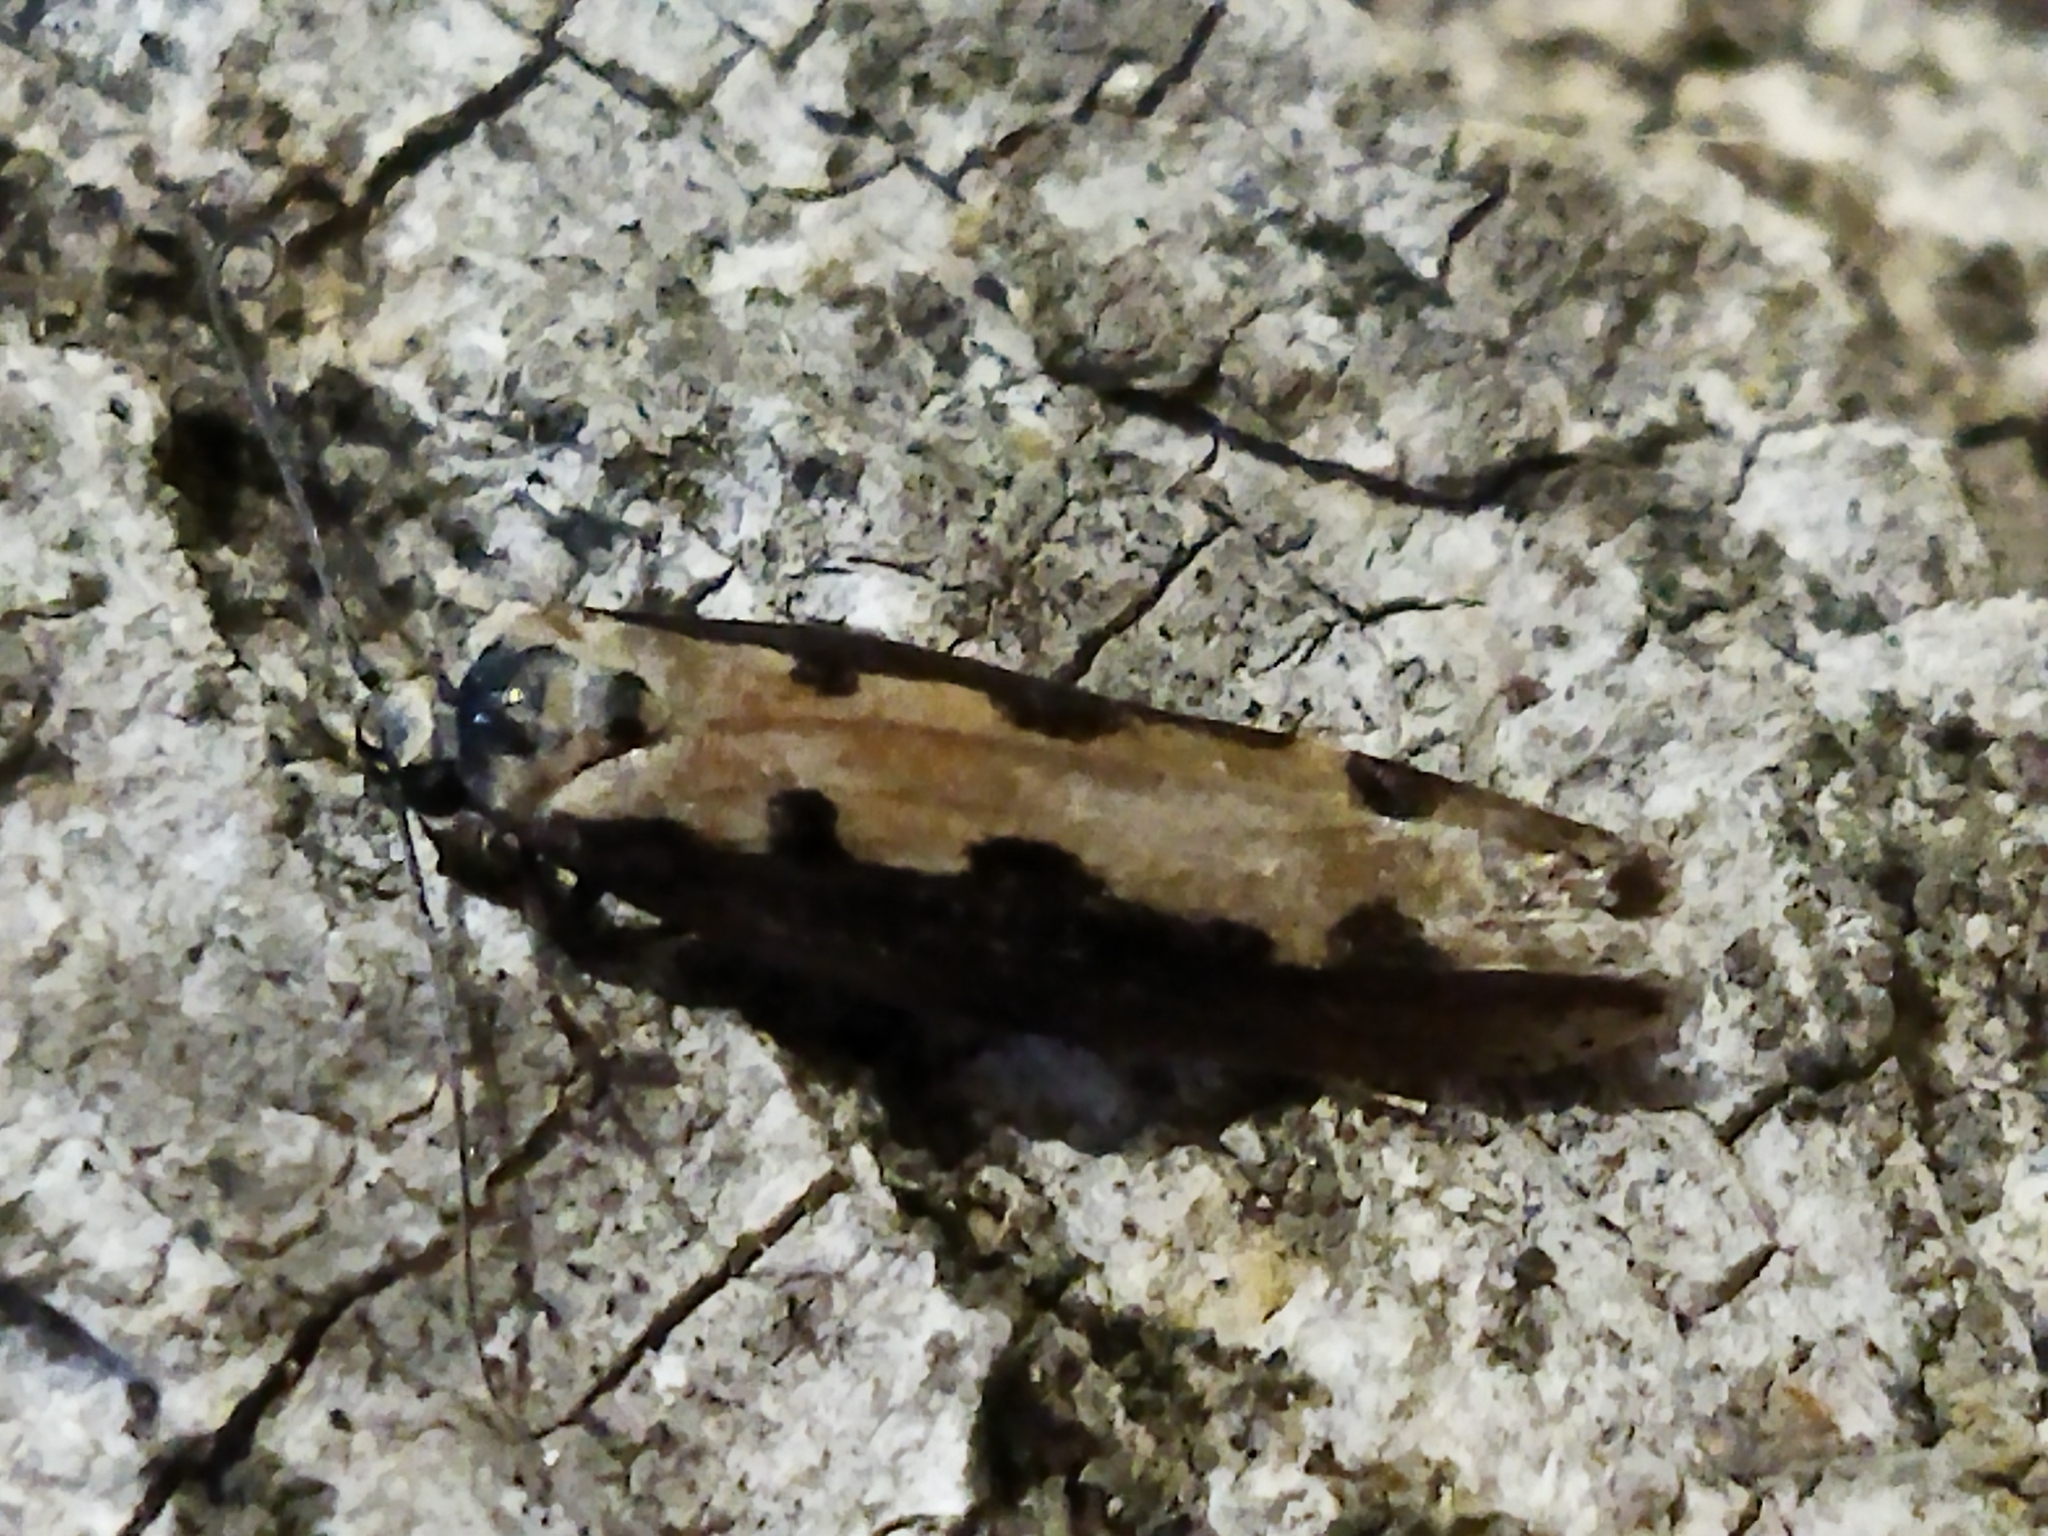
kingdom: Animalia
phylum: Arthropoda
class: Insecta
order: Lepidoptera
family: Ethmiidae
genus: Ethmia
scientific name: Ethmia bipunctella
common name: Bordered ermel
